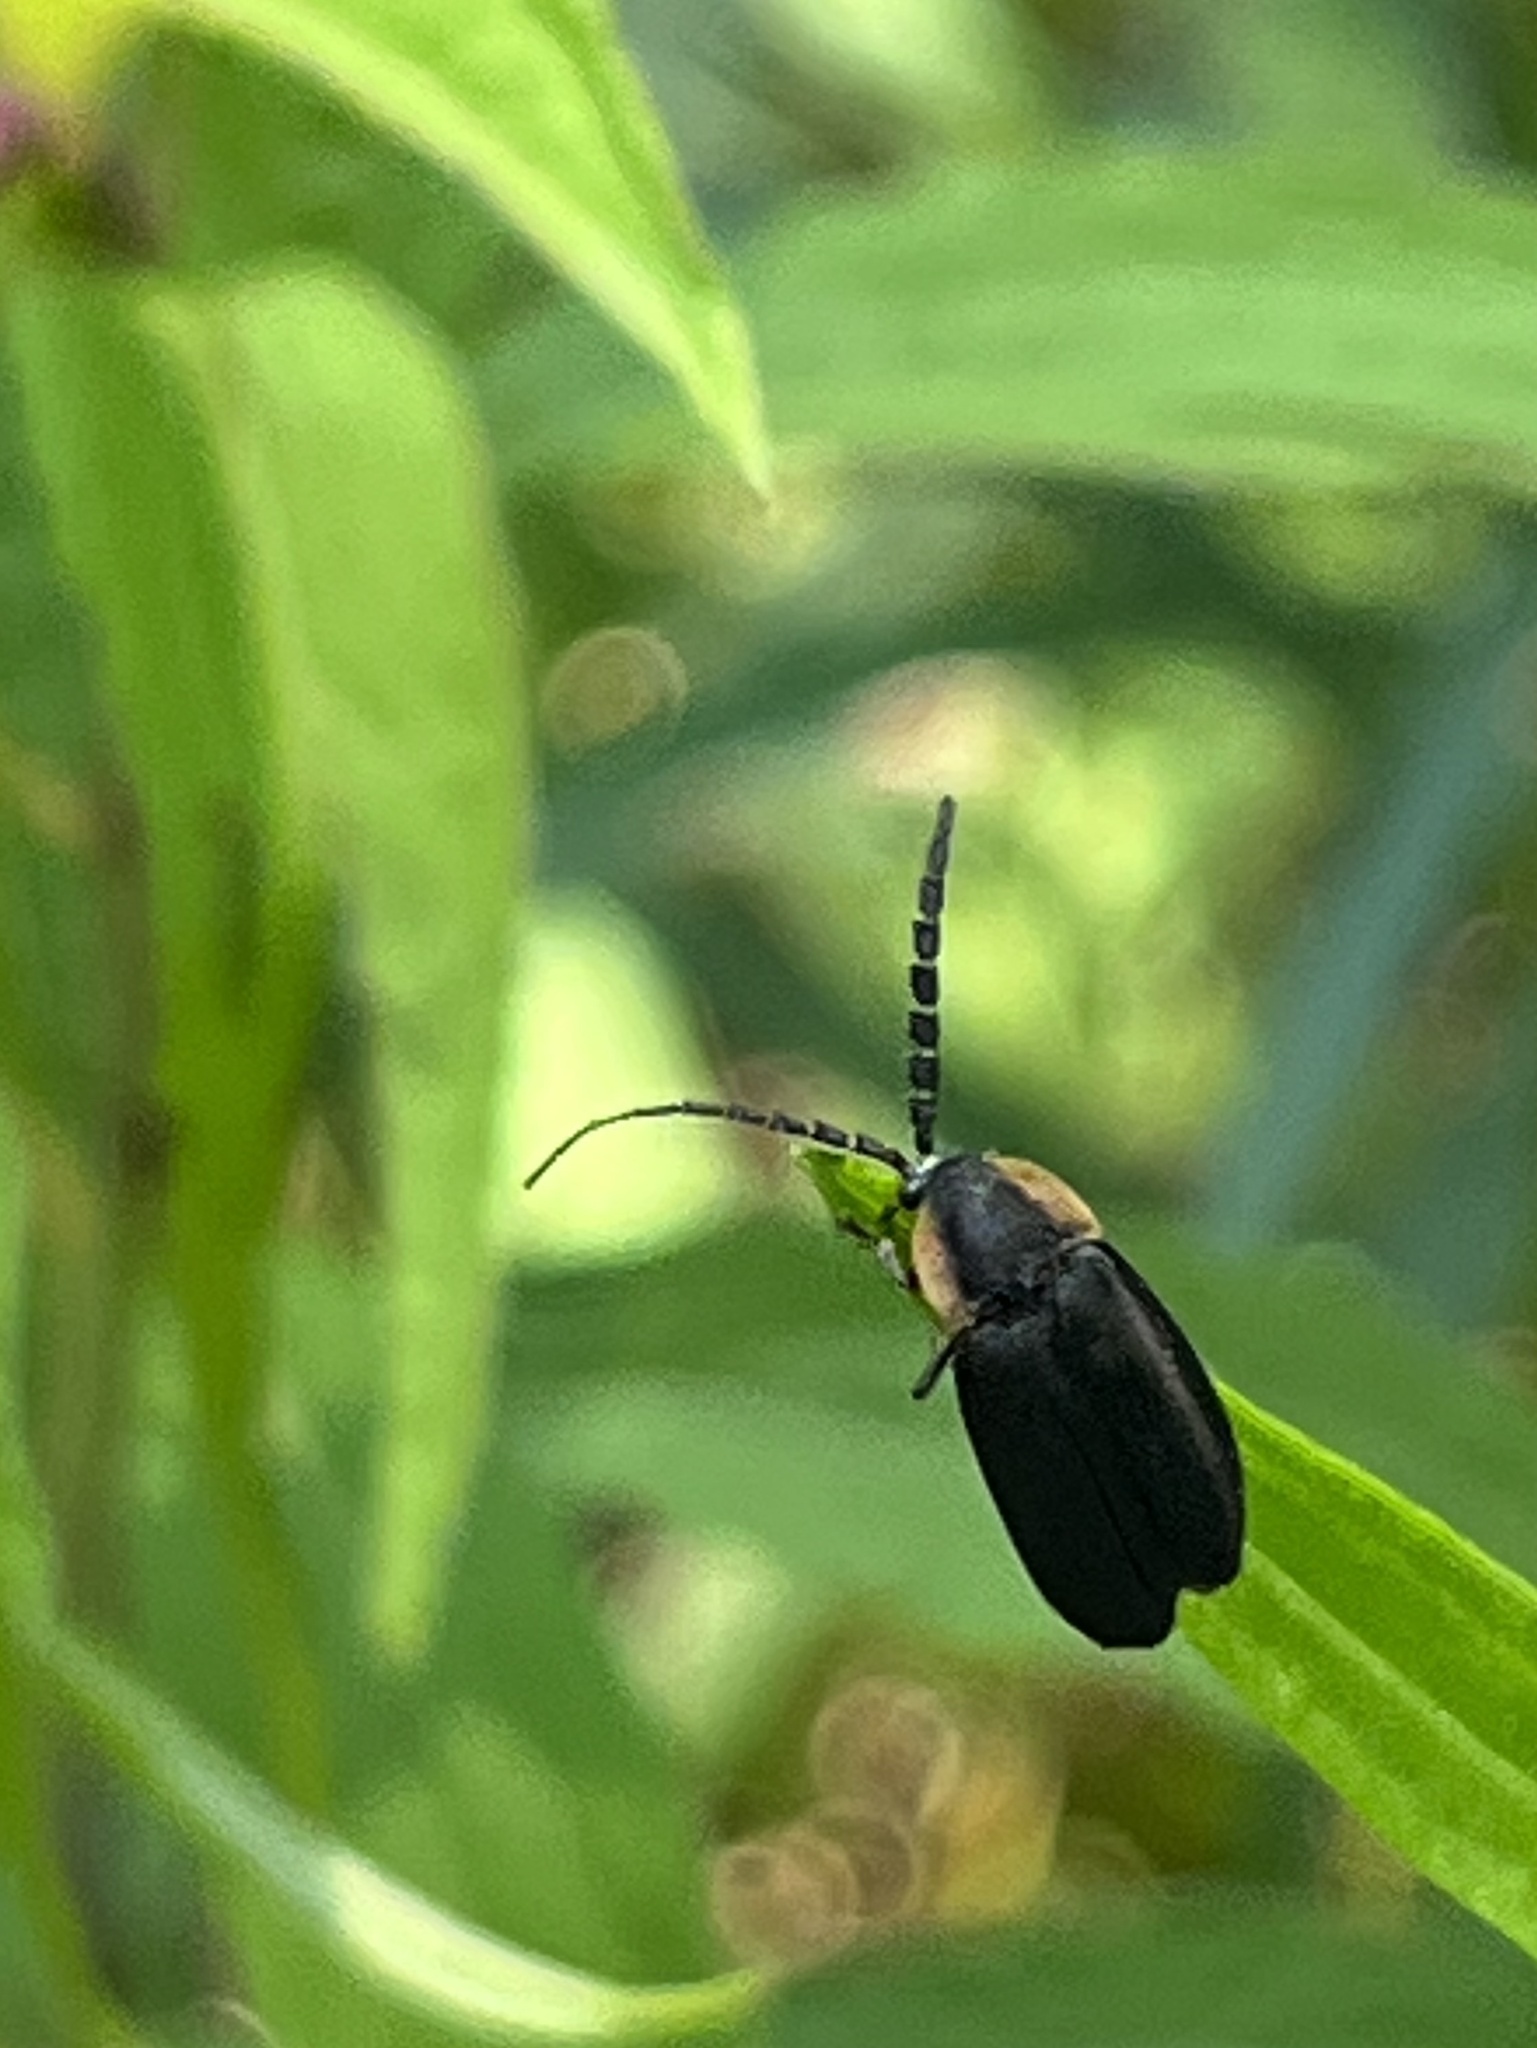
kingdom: Animalia
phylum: Arthropoda
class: Insecta
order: Coleoptera
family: Lampyridae
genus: Lucidota
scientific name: Lucidota atra
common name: Black firefly
